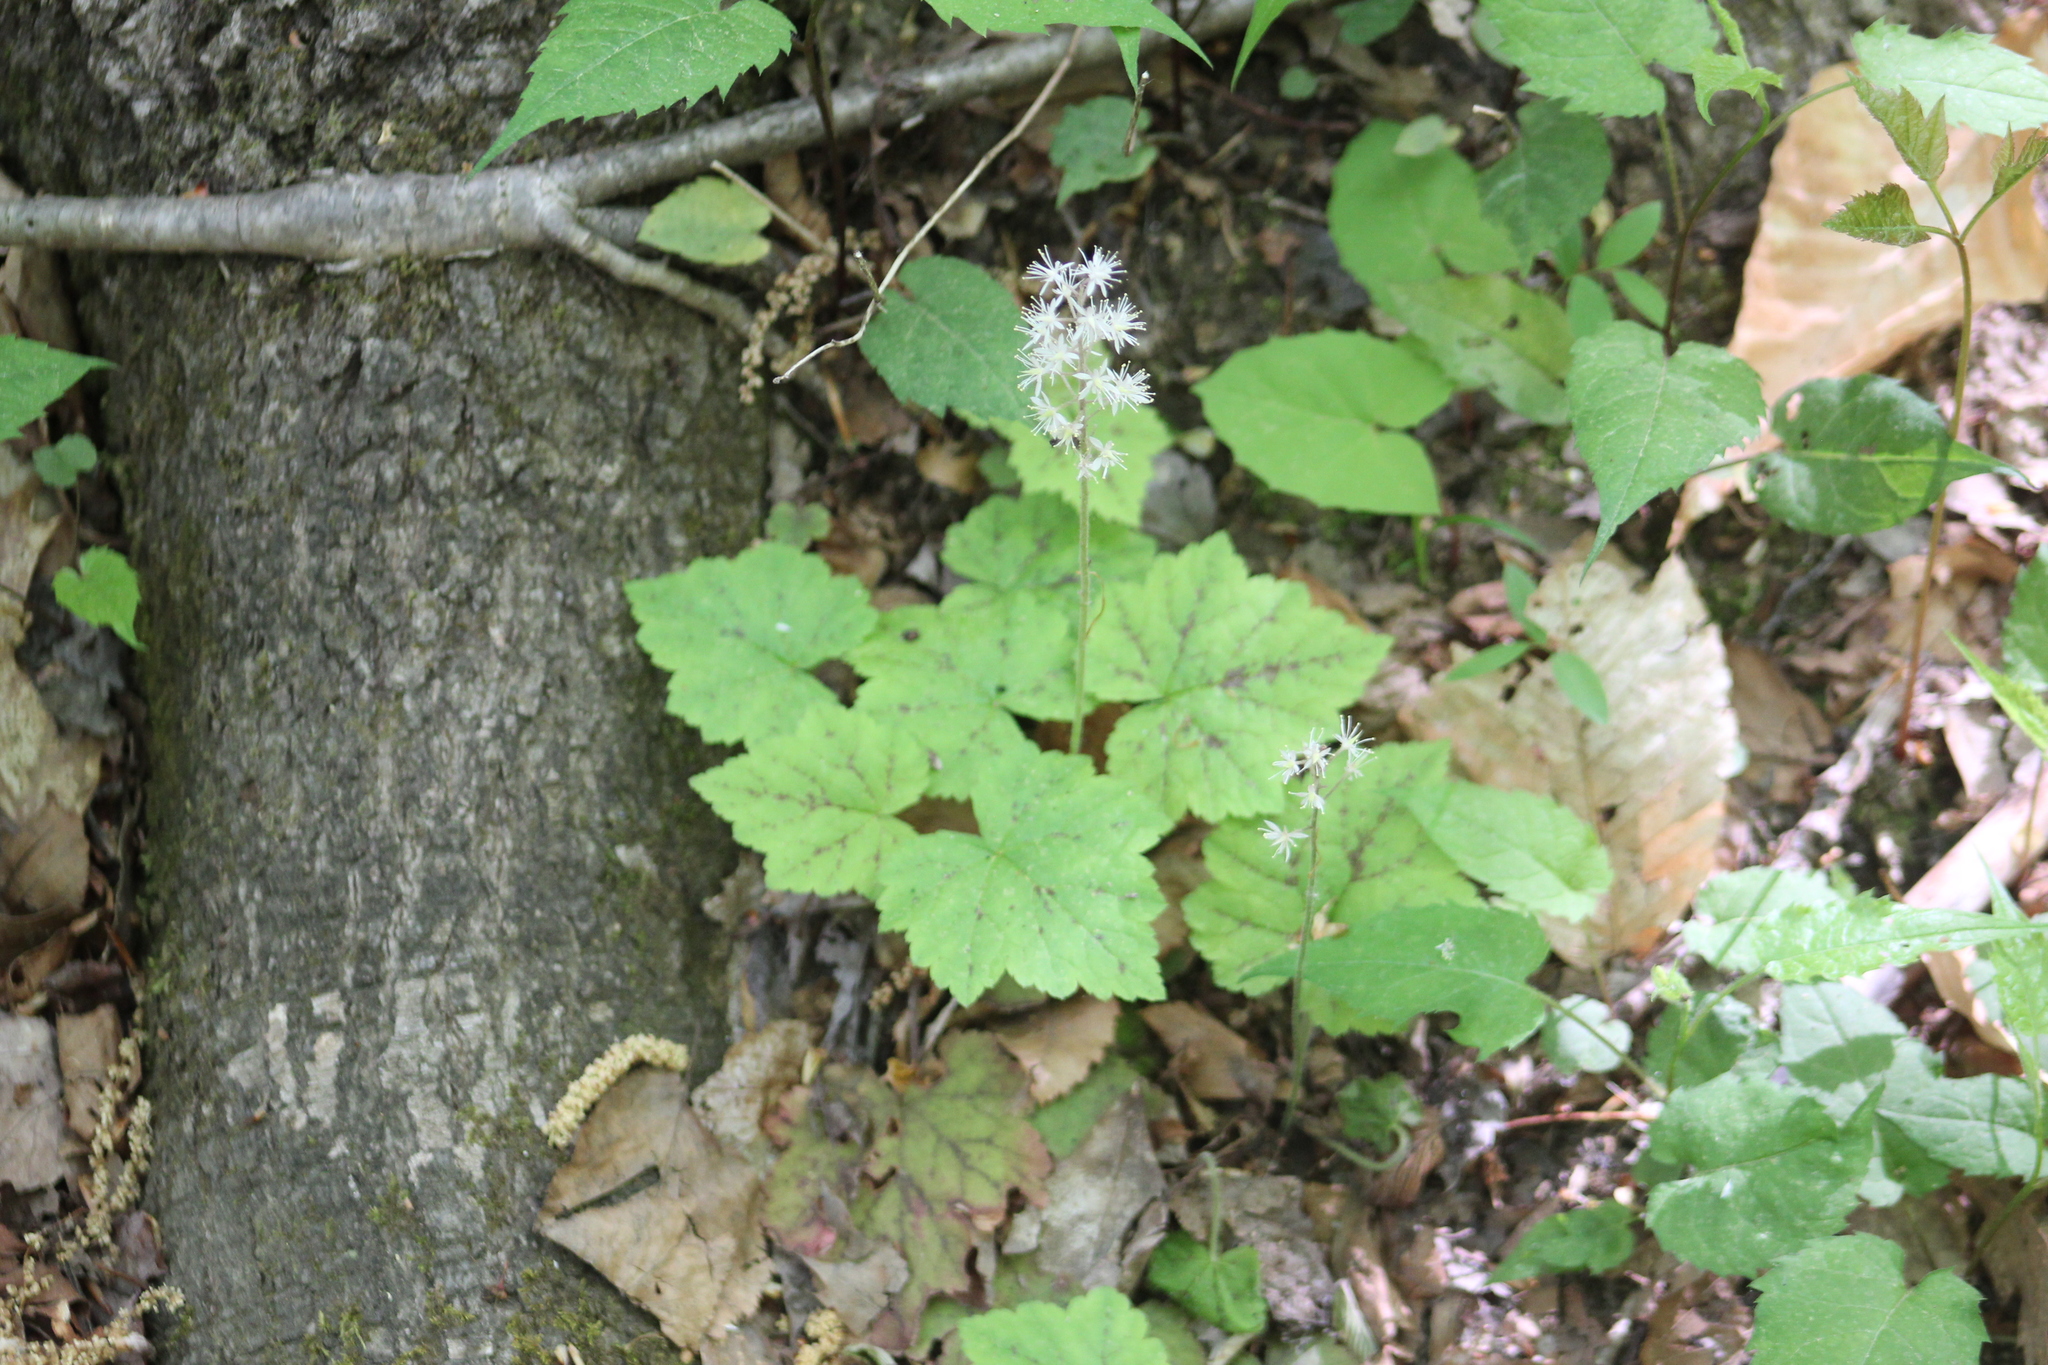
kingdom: Plantae
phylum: Tracheophyta
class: Magnoliopsida
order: Saxifragales
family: Saxifragaceae
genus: Tiarella
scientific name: Tiarella stolonifera
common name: Stoloniferous foamflower
